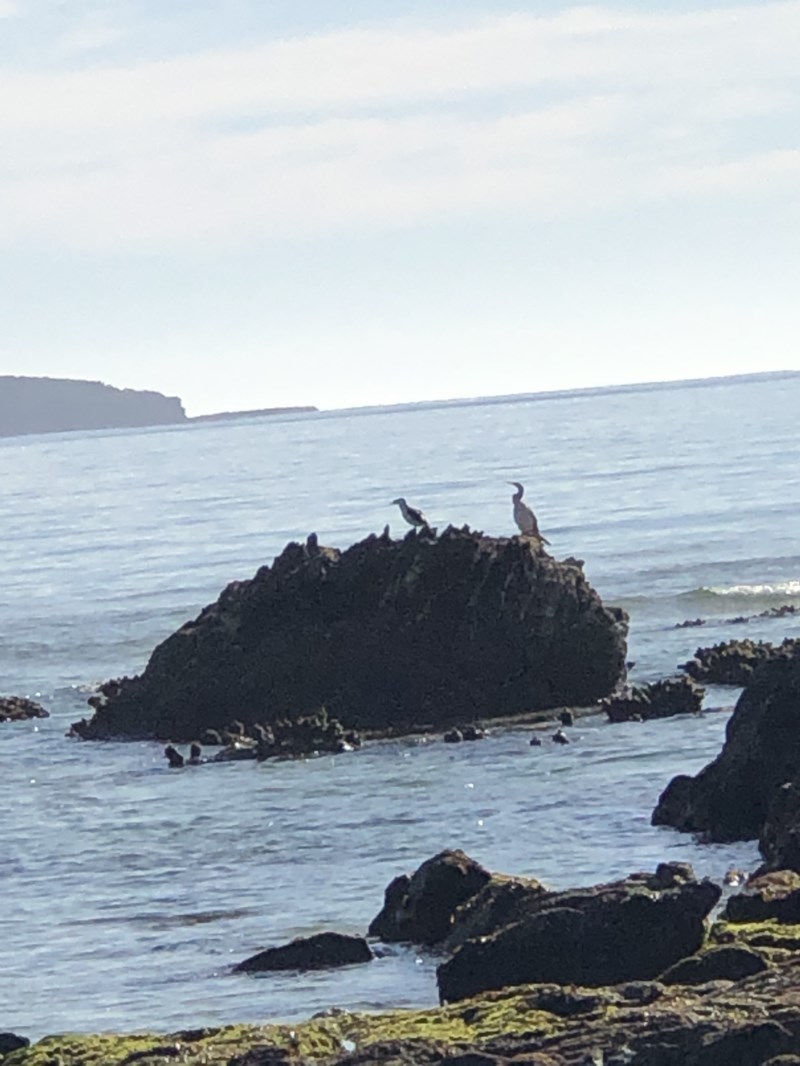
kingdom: Animalia
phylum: Chordata
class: Aves
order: Suliformes
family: Anhingidae
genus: Anhinga
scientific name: Anhinga novaehollandiae
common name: Australasian darter
